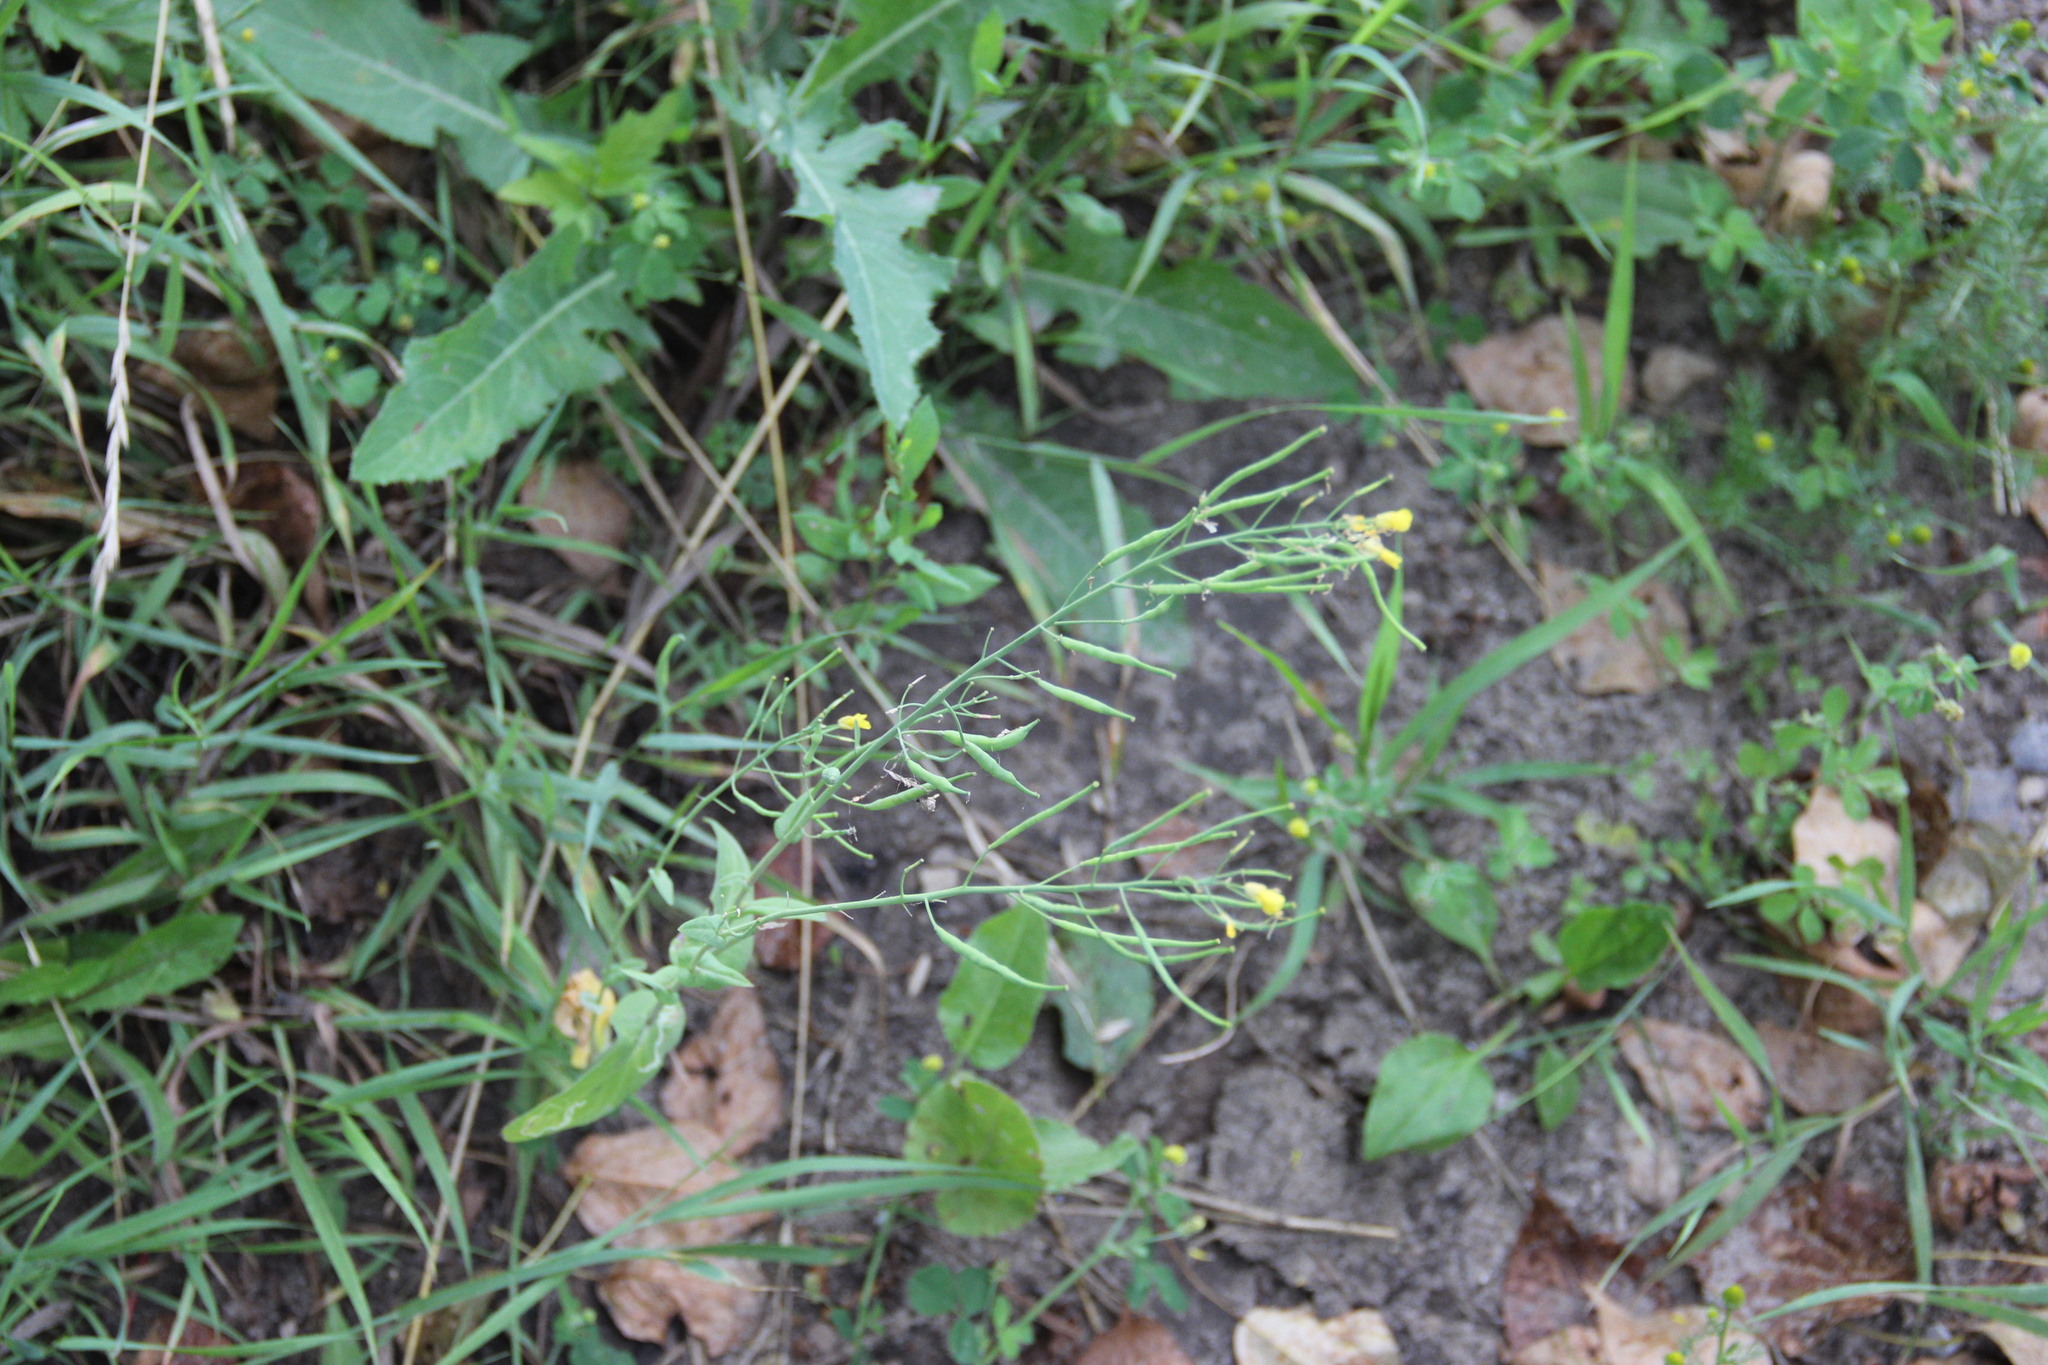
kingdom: Plantae
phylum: Tracheophyta
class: Magnoliopsida
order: Brassicales
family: Brassicaceae
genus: Brassica
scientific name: Brassica rapa
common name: Field mustard
